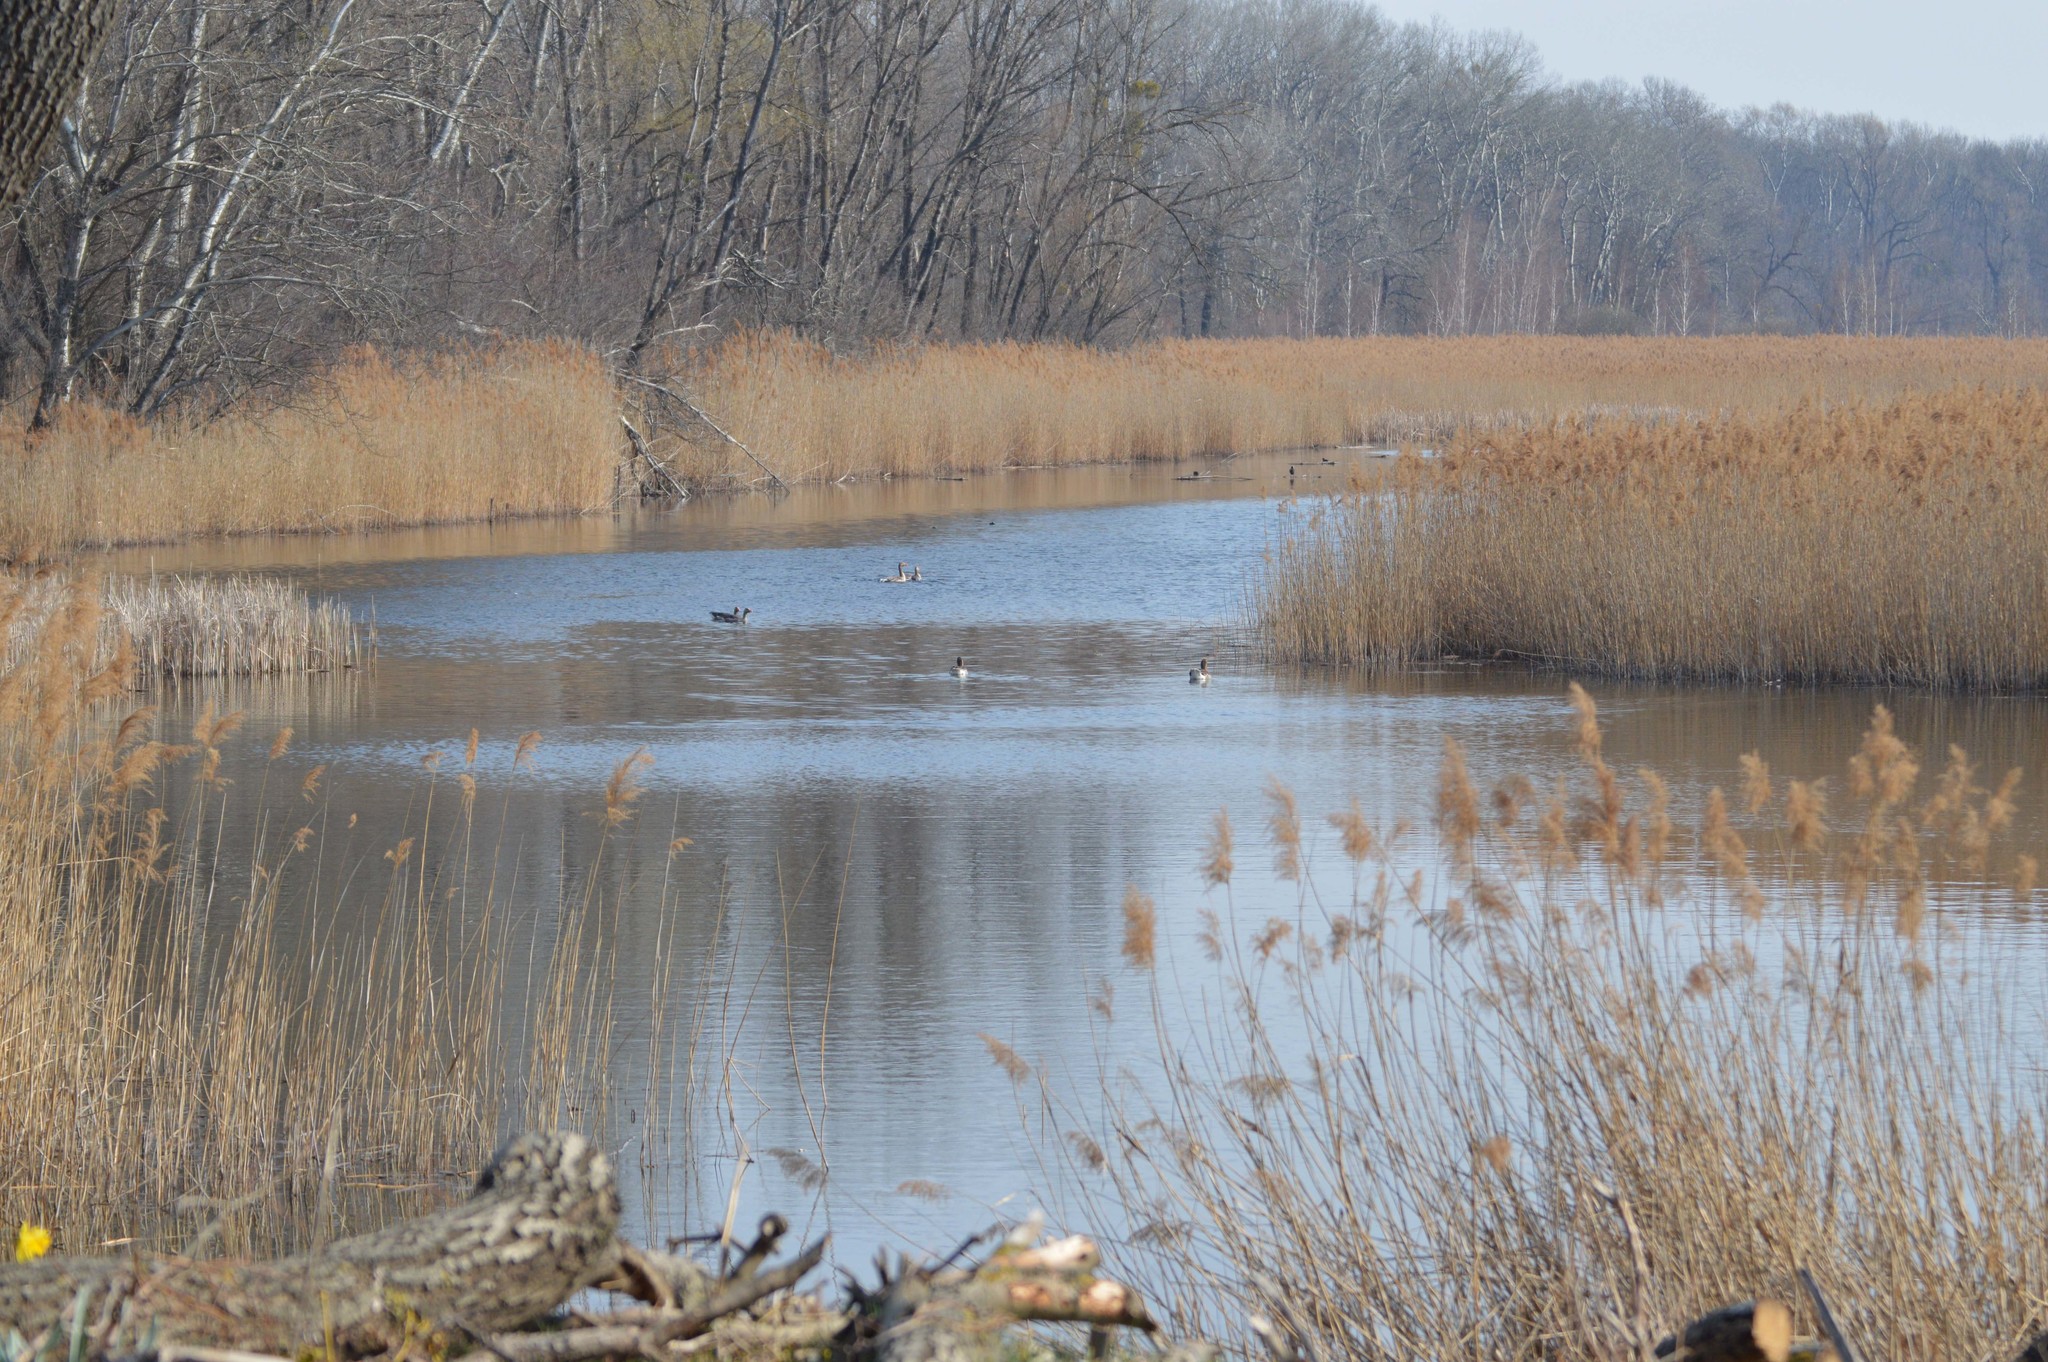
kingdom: Animalia
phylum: Chordata
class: Aves
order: Anseriformes
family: Anatidae
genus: Anser
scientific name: Anser anser
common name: Greylag goose
